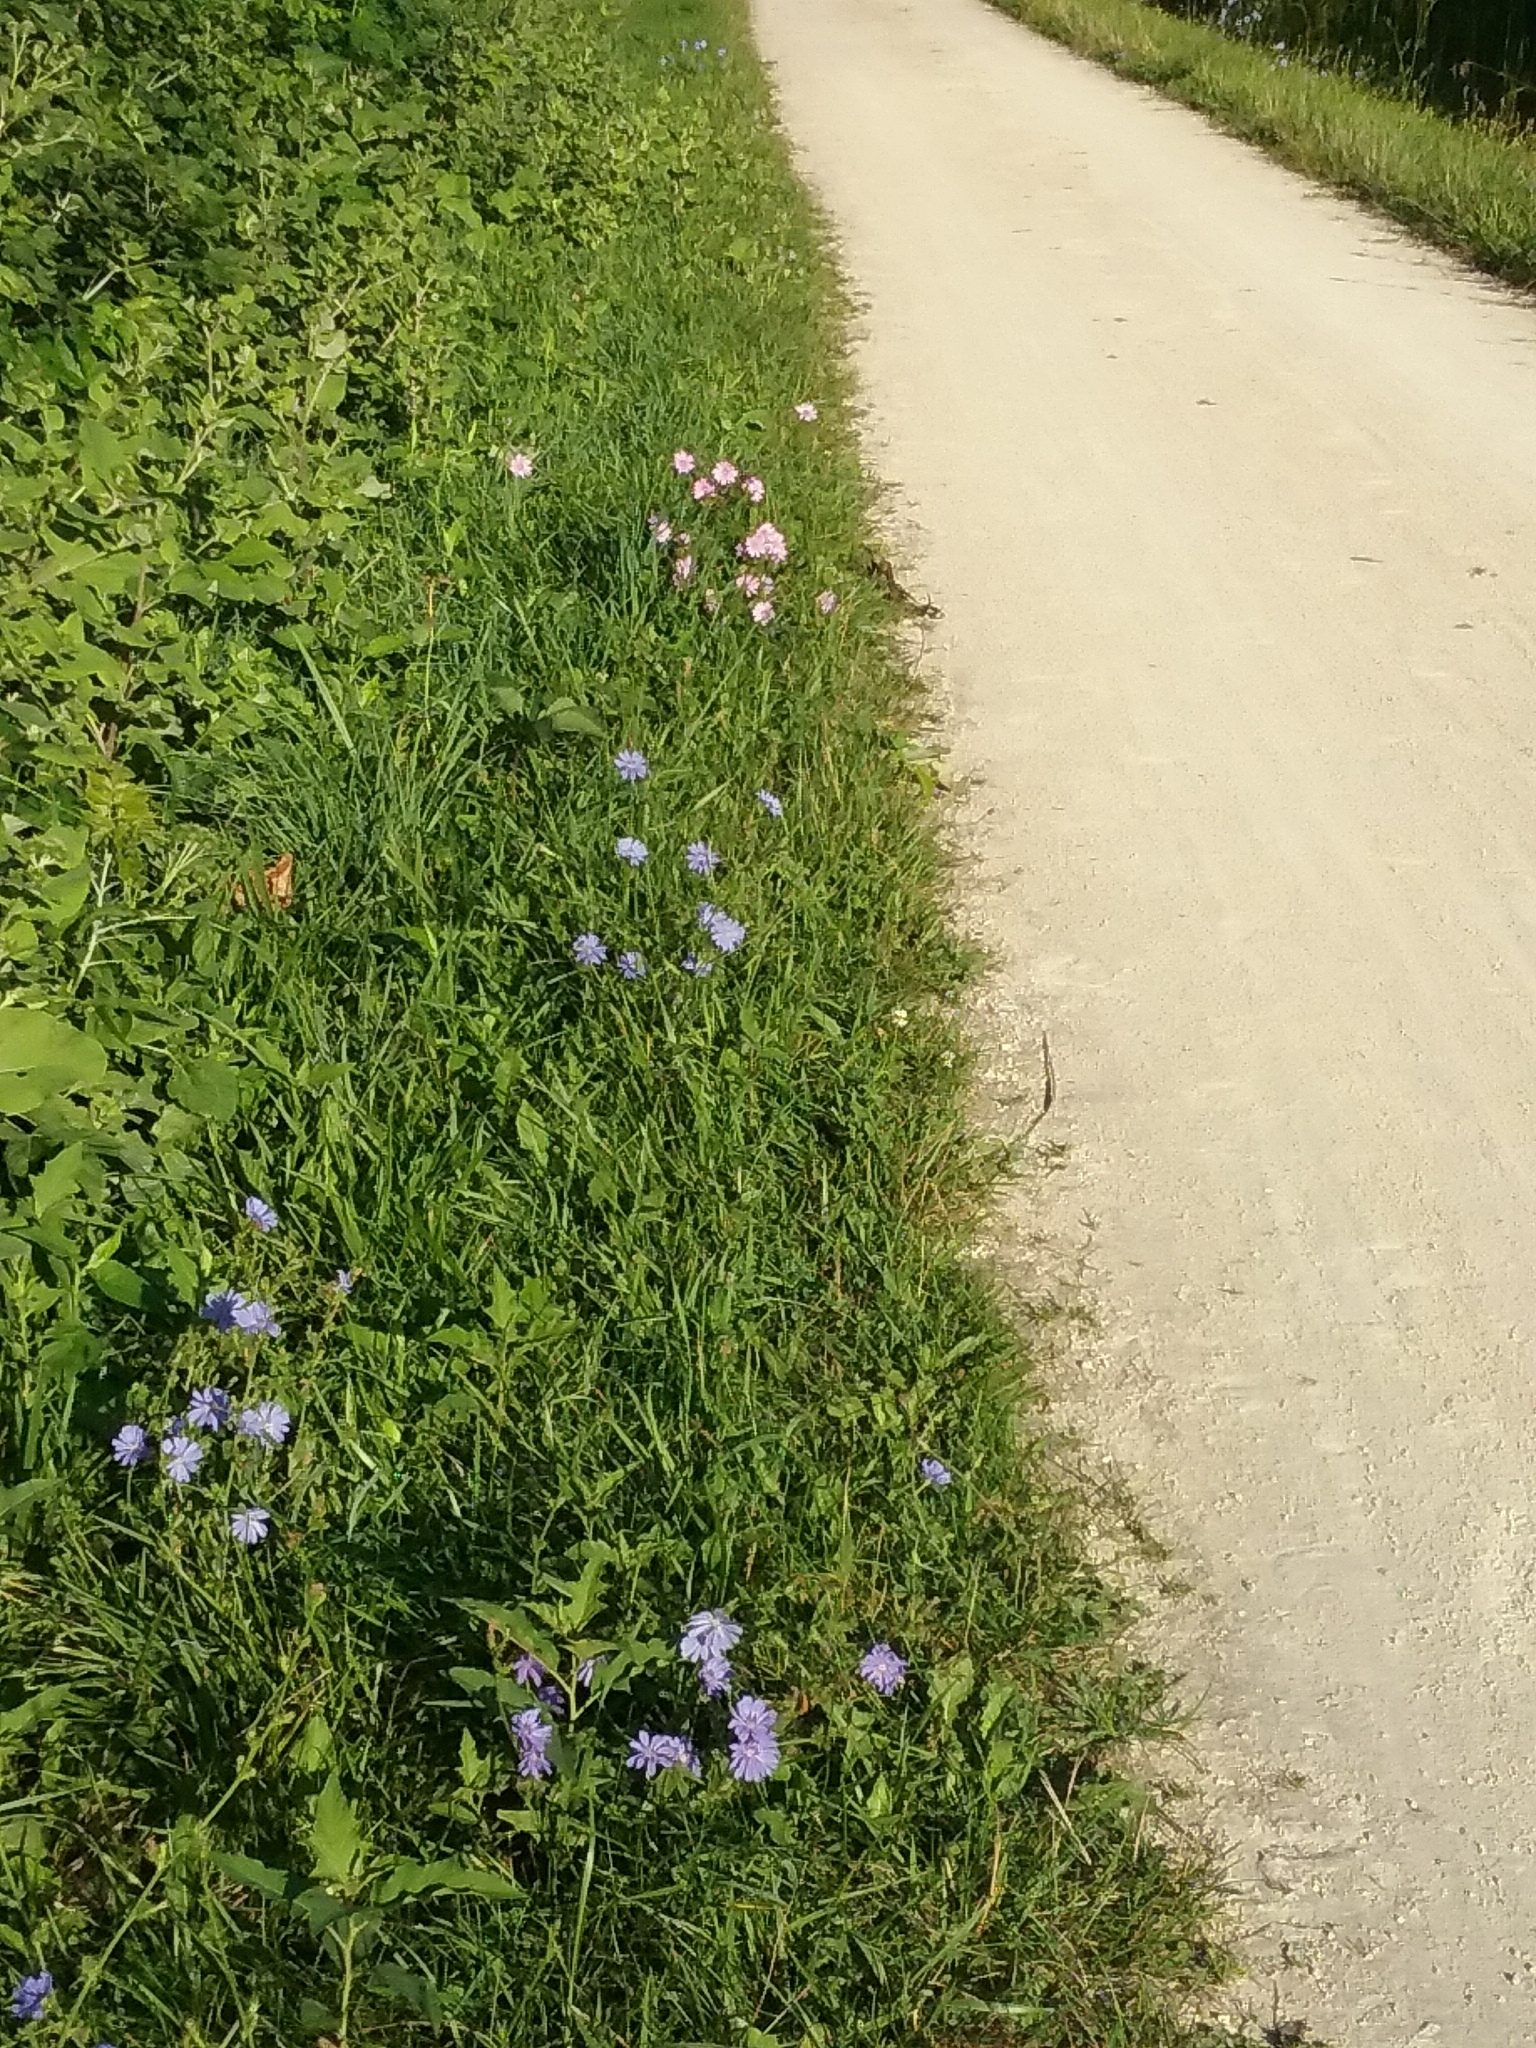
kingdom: Plantae
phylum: Tracheophyta
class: Magnoliopsida
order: Asterales
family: Asteraceae
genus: Cichorium
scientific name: Cichorium intybus
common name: Chicory
